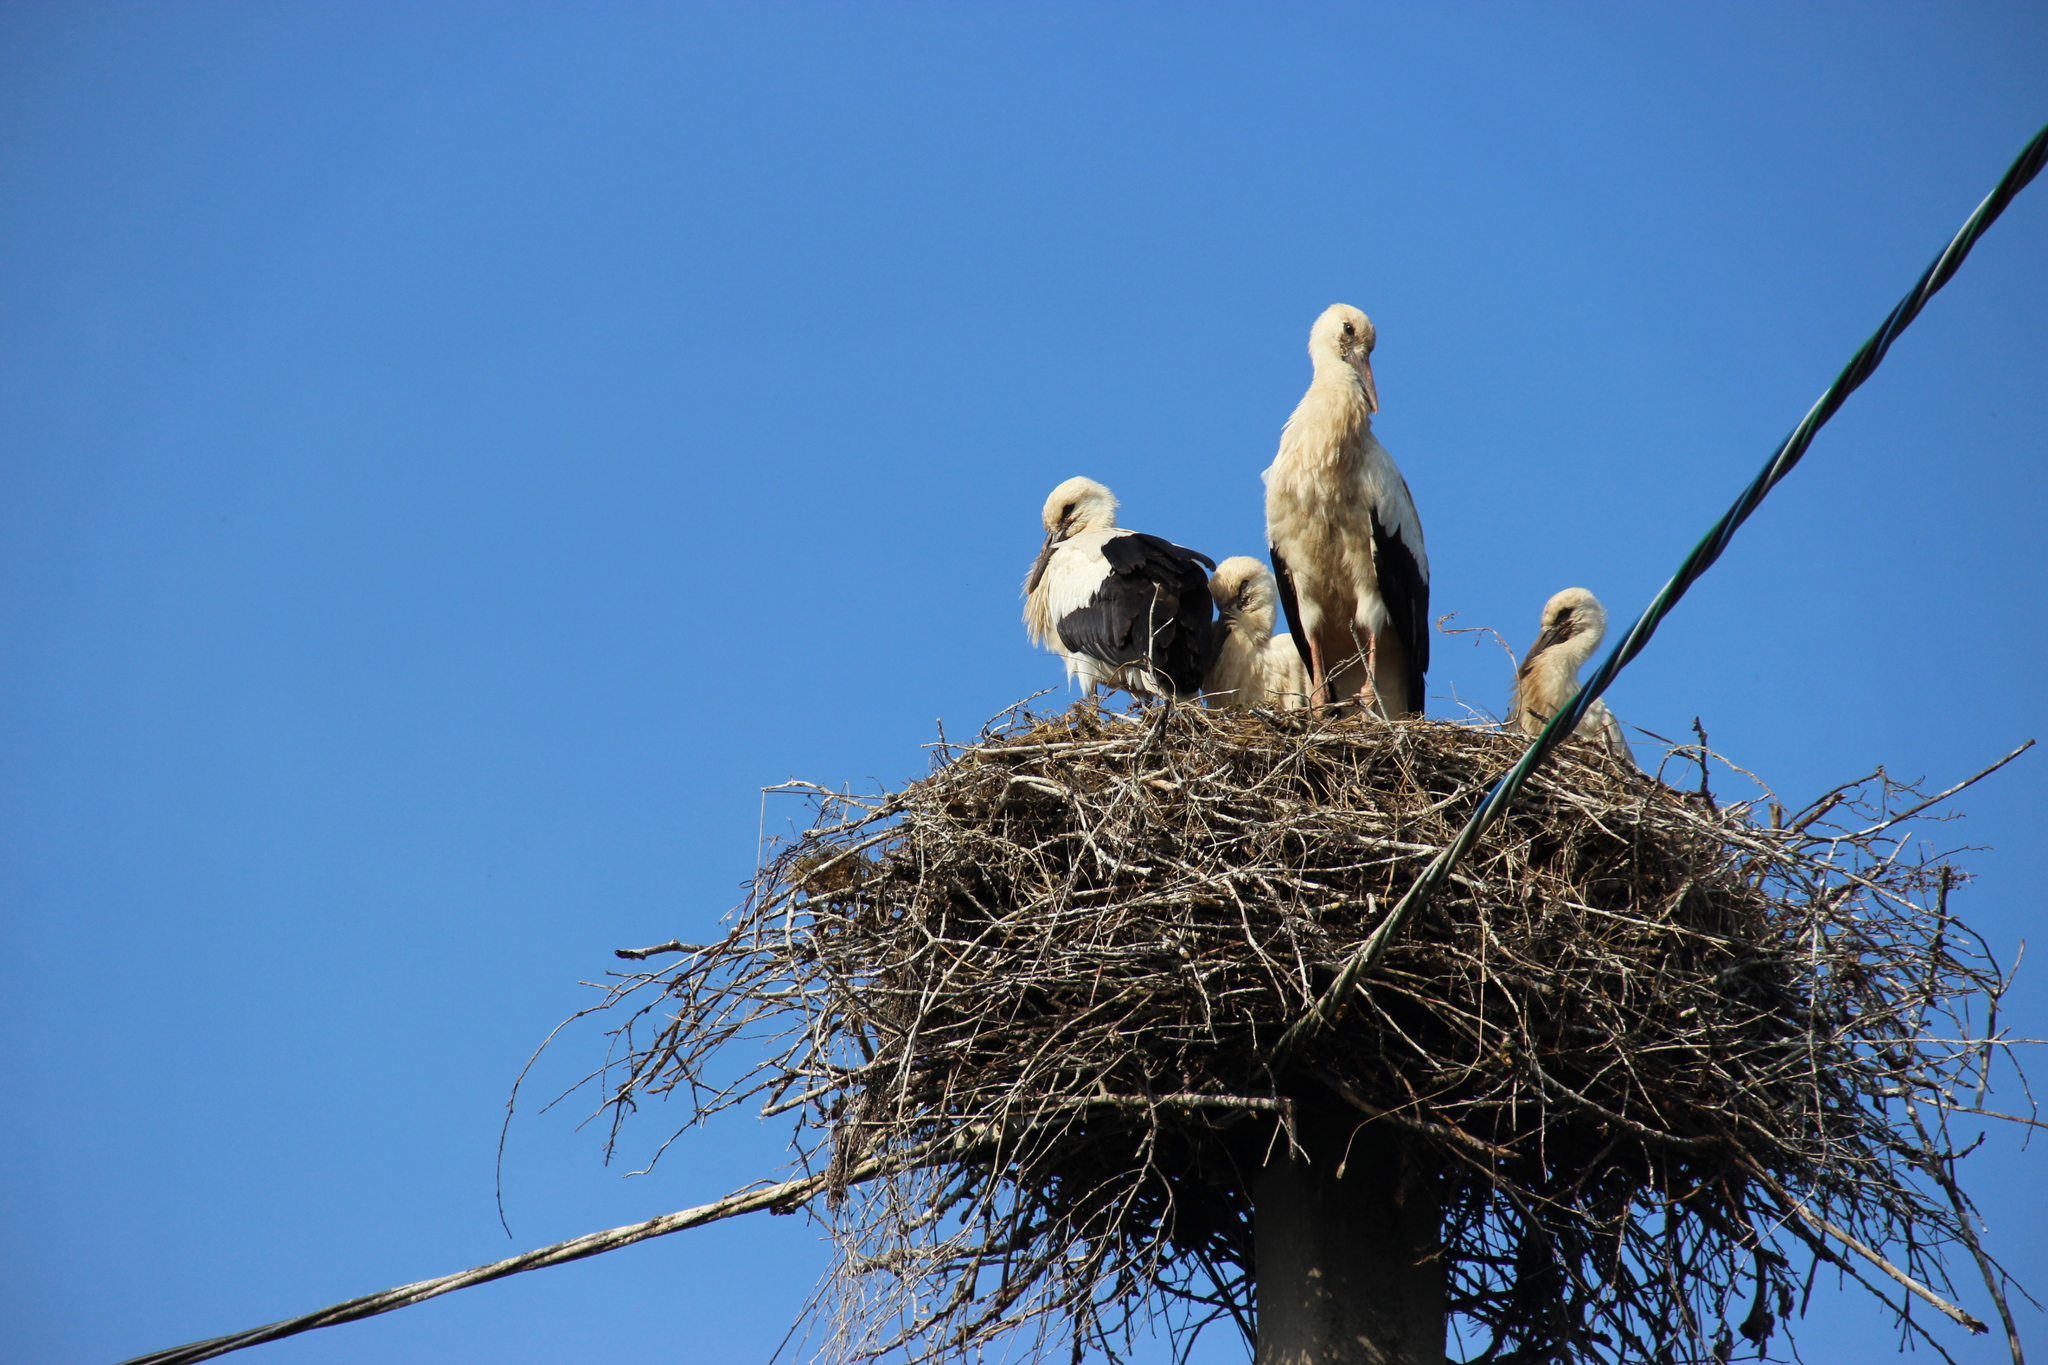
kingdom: Animalia
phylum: Chordata
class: Aves
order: Ciconiiformes
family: Ciconiidae
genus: Ciconia
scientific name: Ciconia ciconia
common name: White stork
